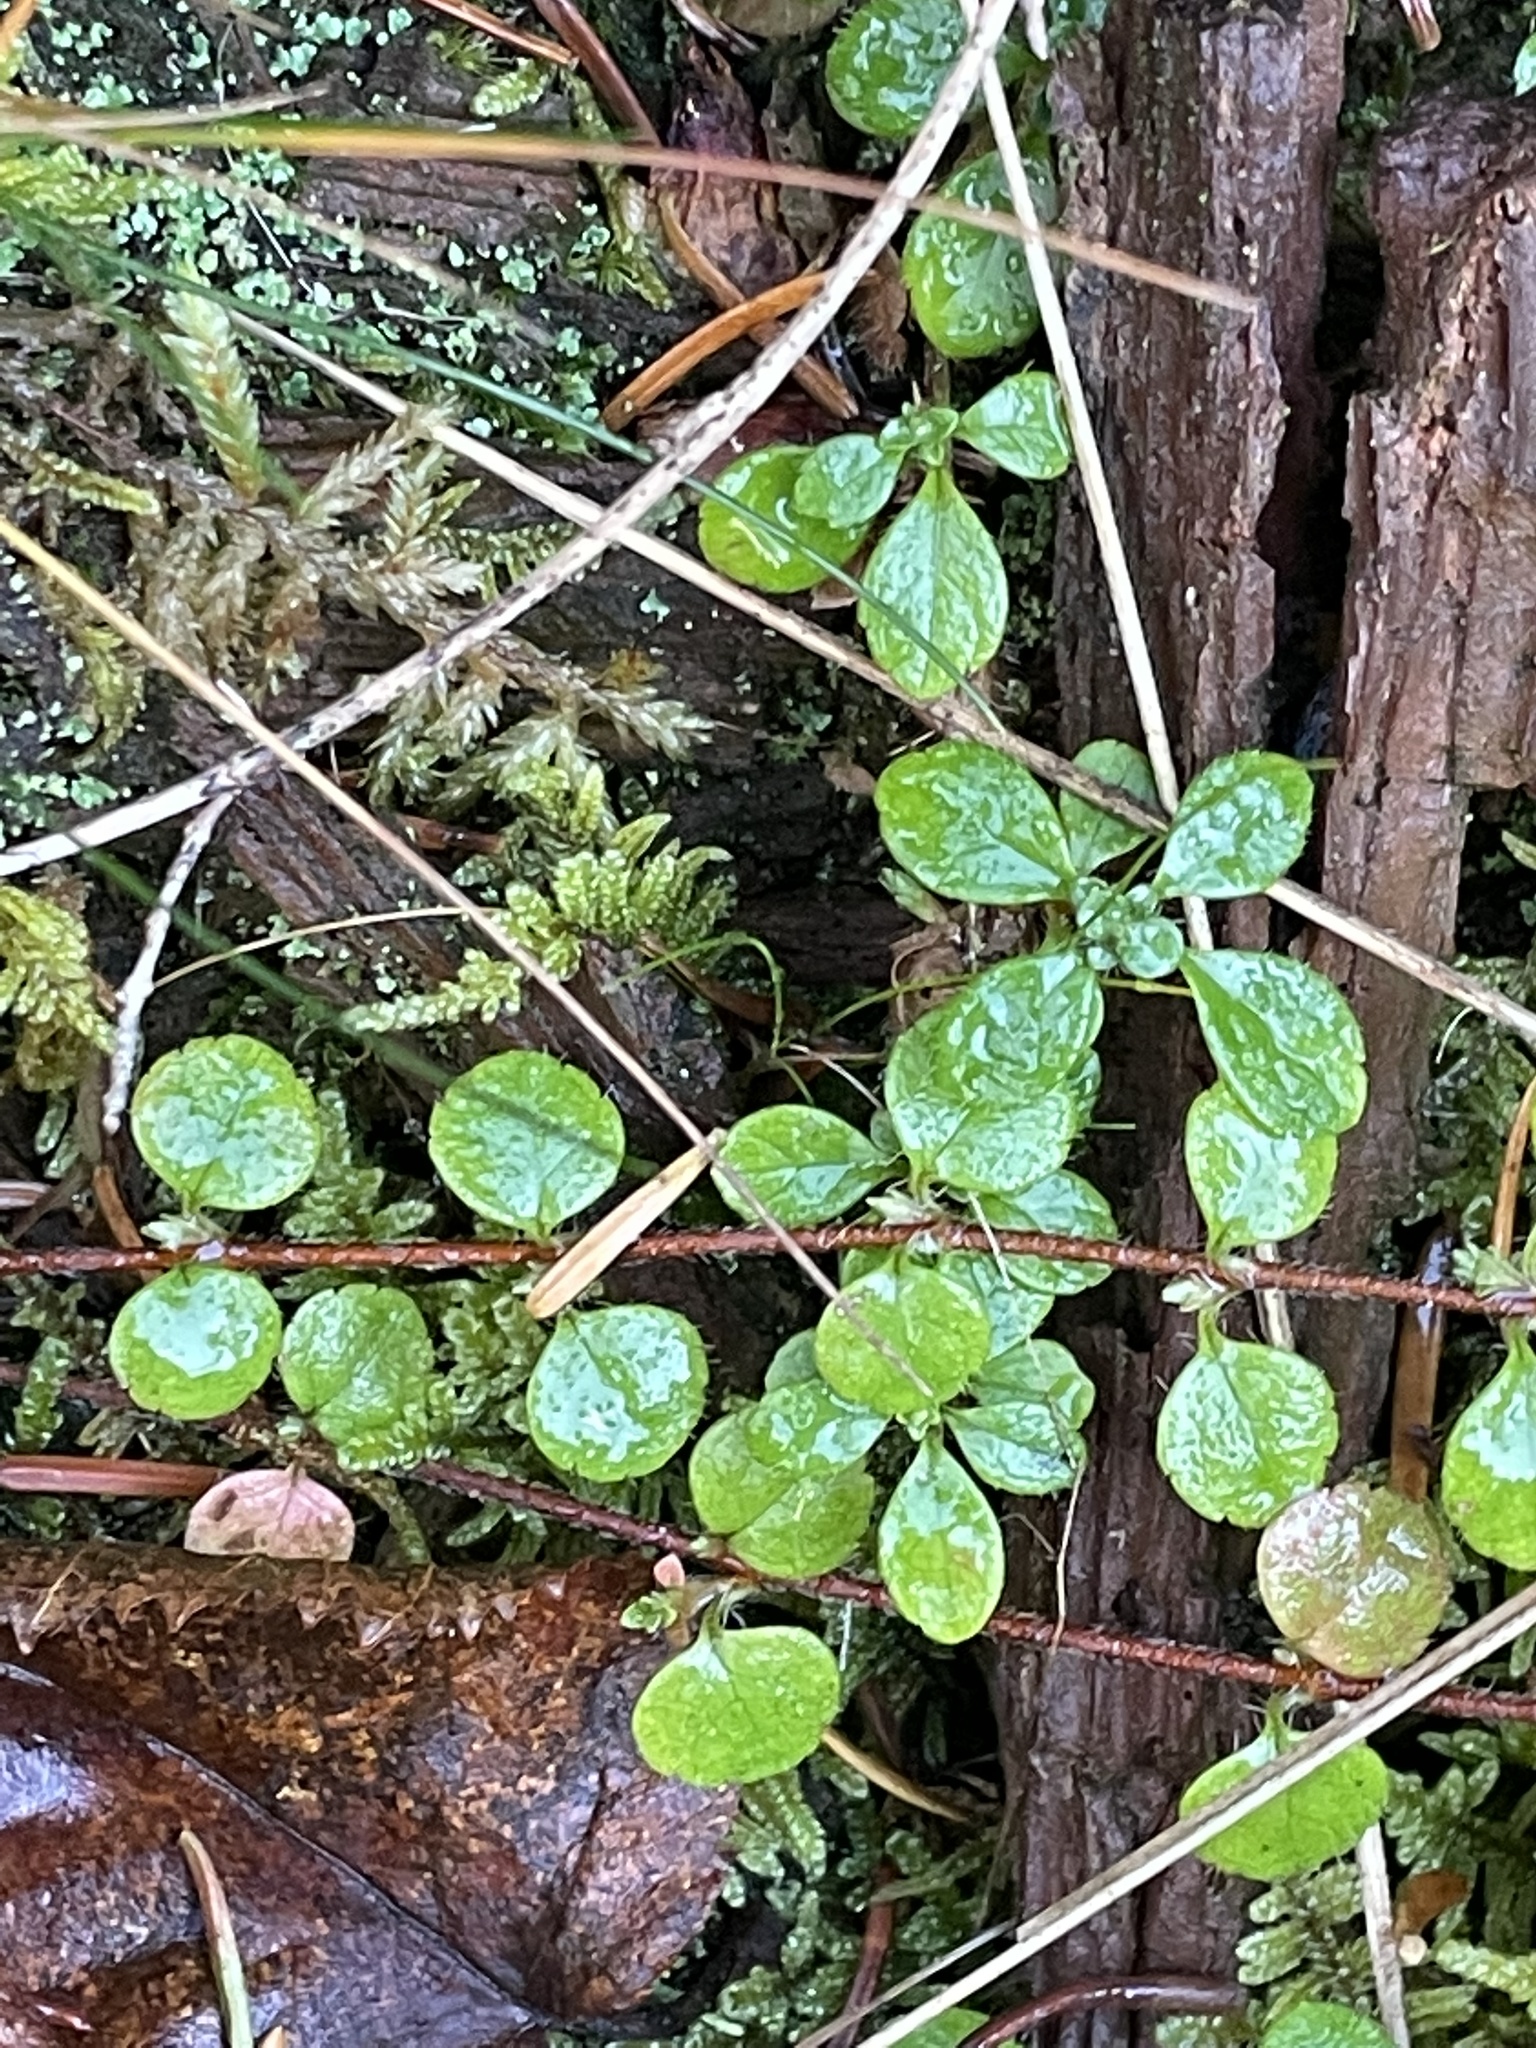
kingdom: Plantae
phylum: Tracheophyta
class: Magnoliopsida
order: Dipsacales
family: Caprifoliaceae
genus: Linnaea
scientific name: Linnaea borealis
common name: Twinflower
